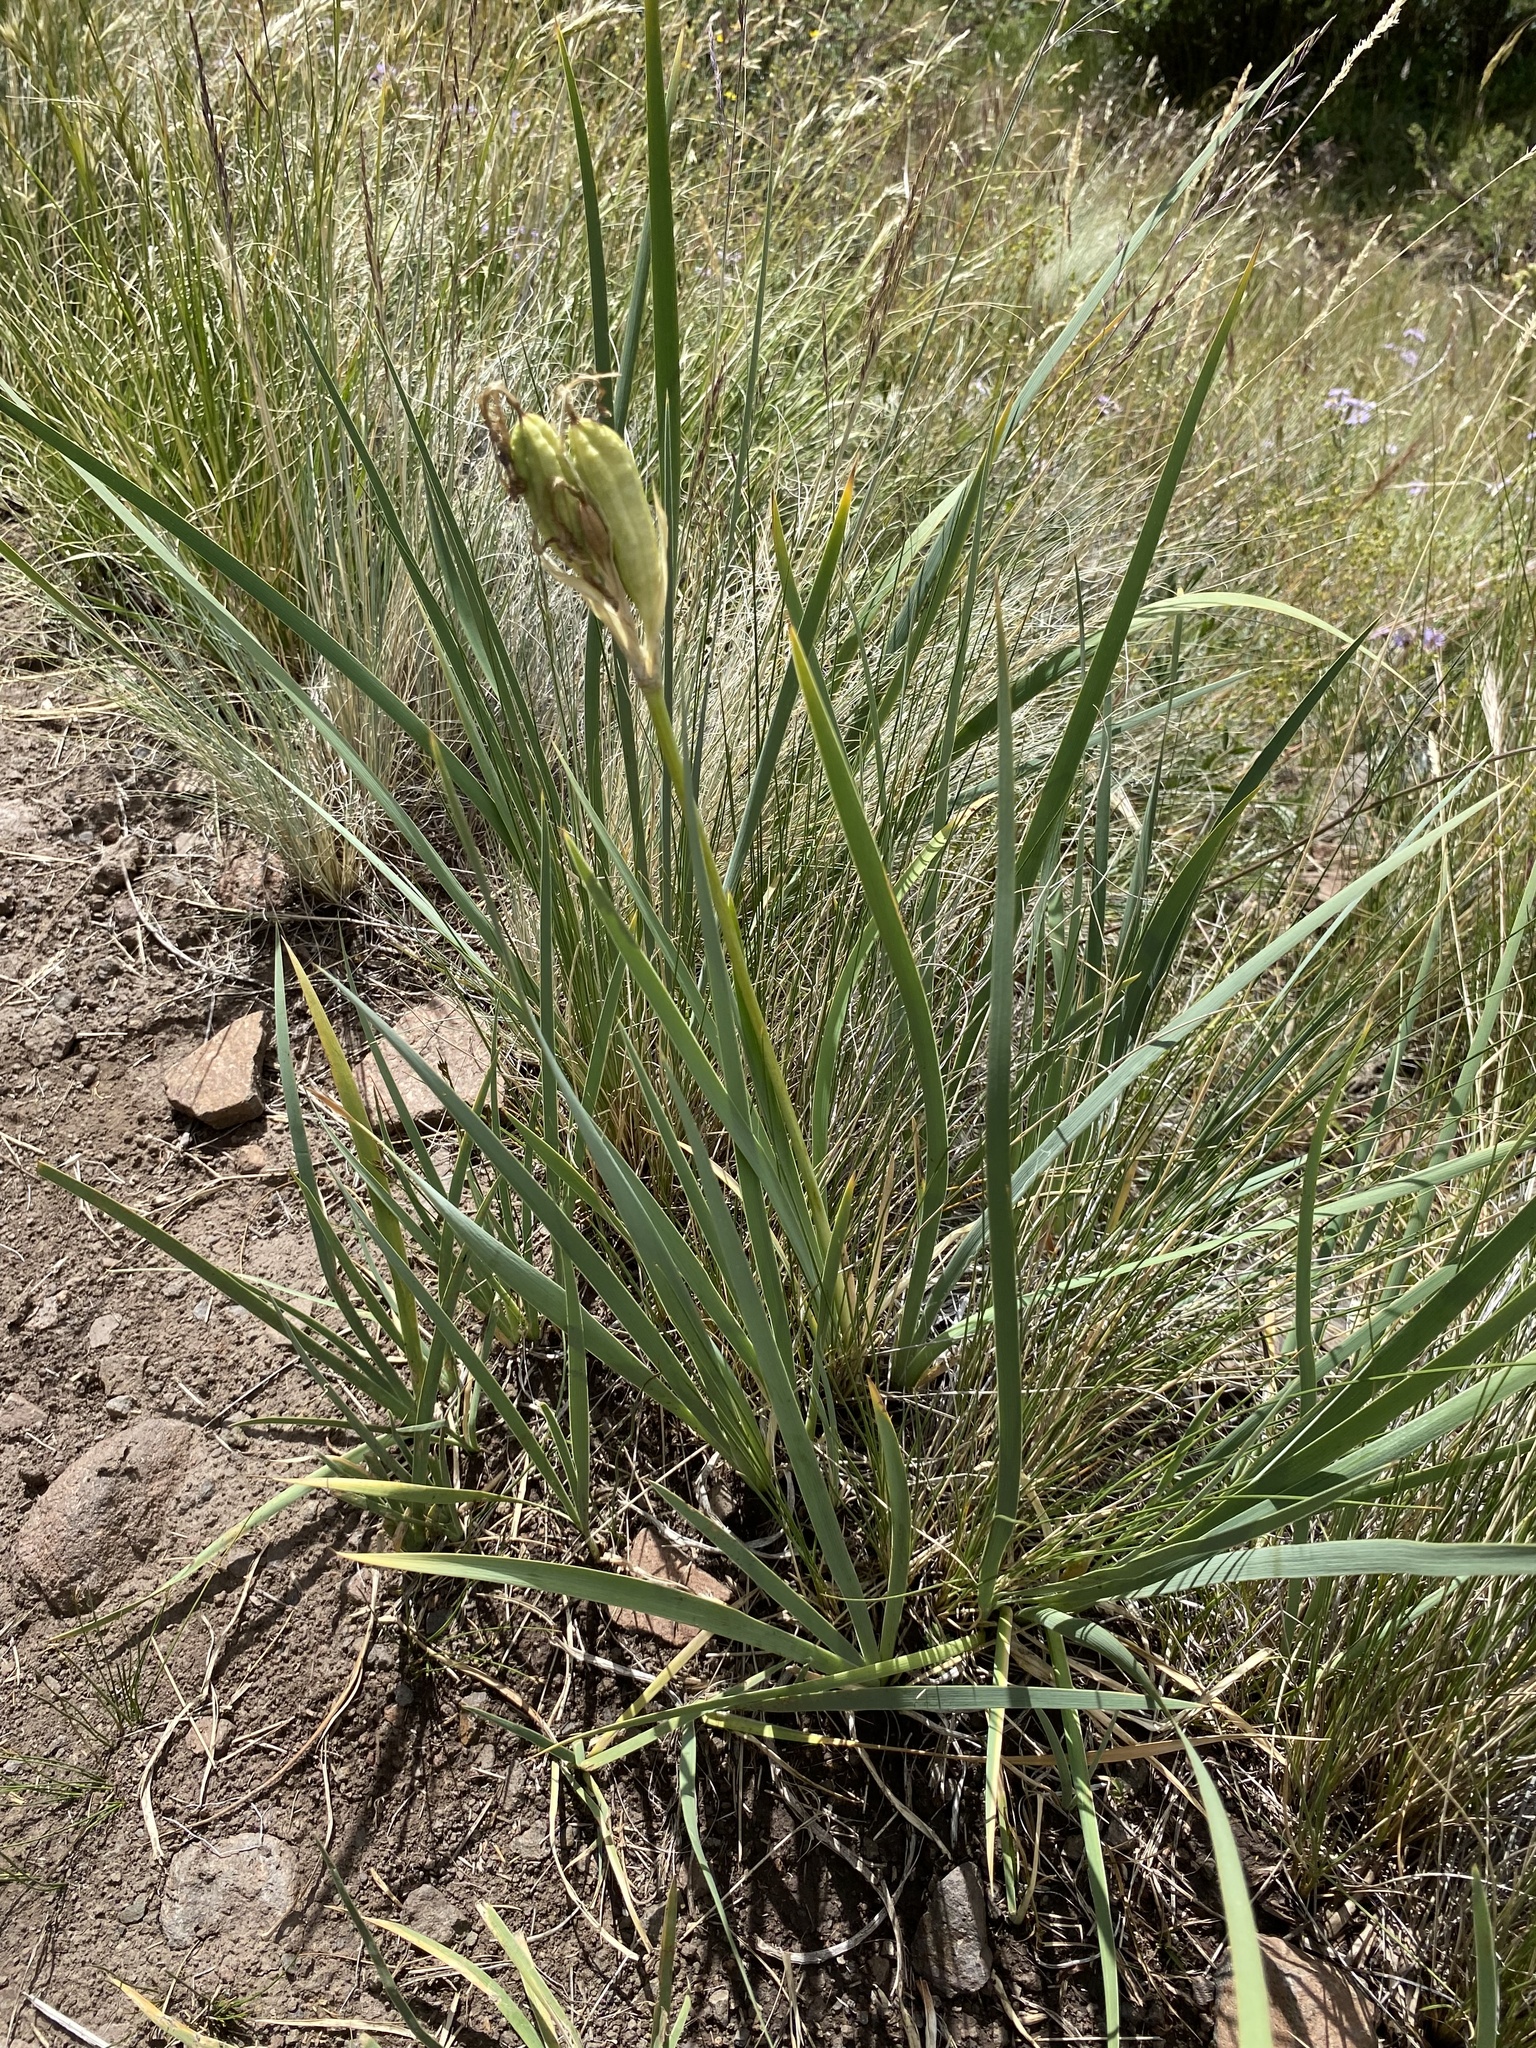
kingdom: Plantae
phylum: Tracheophyta
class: Liliopsida
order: Asparagales
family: Iridaceae
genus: Iris
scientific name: Iris missouriensis
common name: Rocky mountain iris
